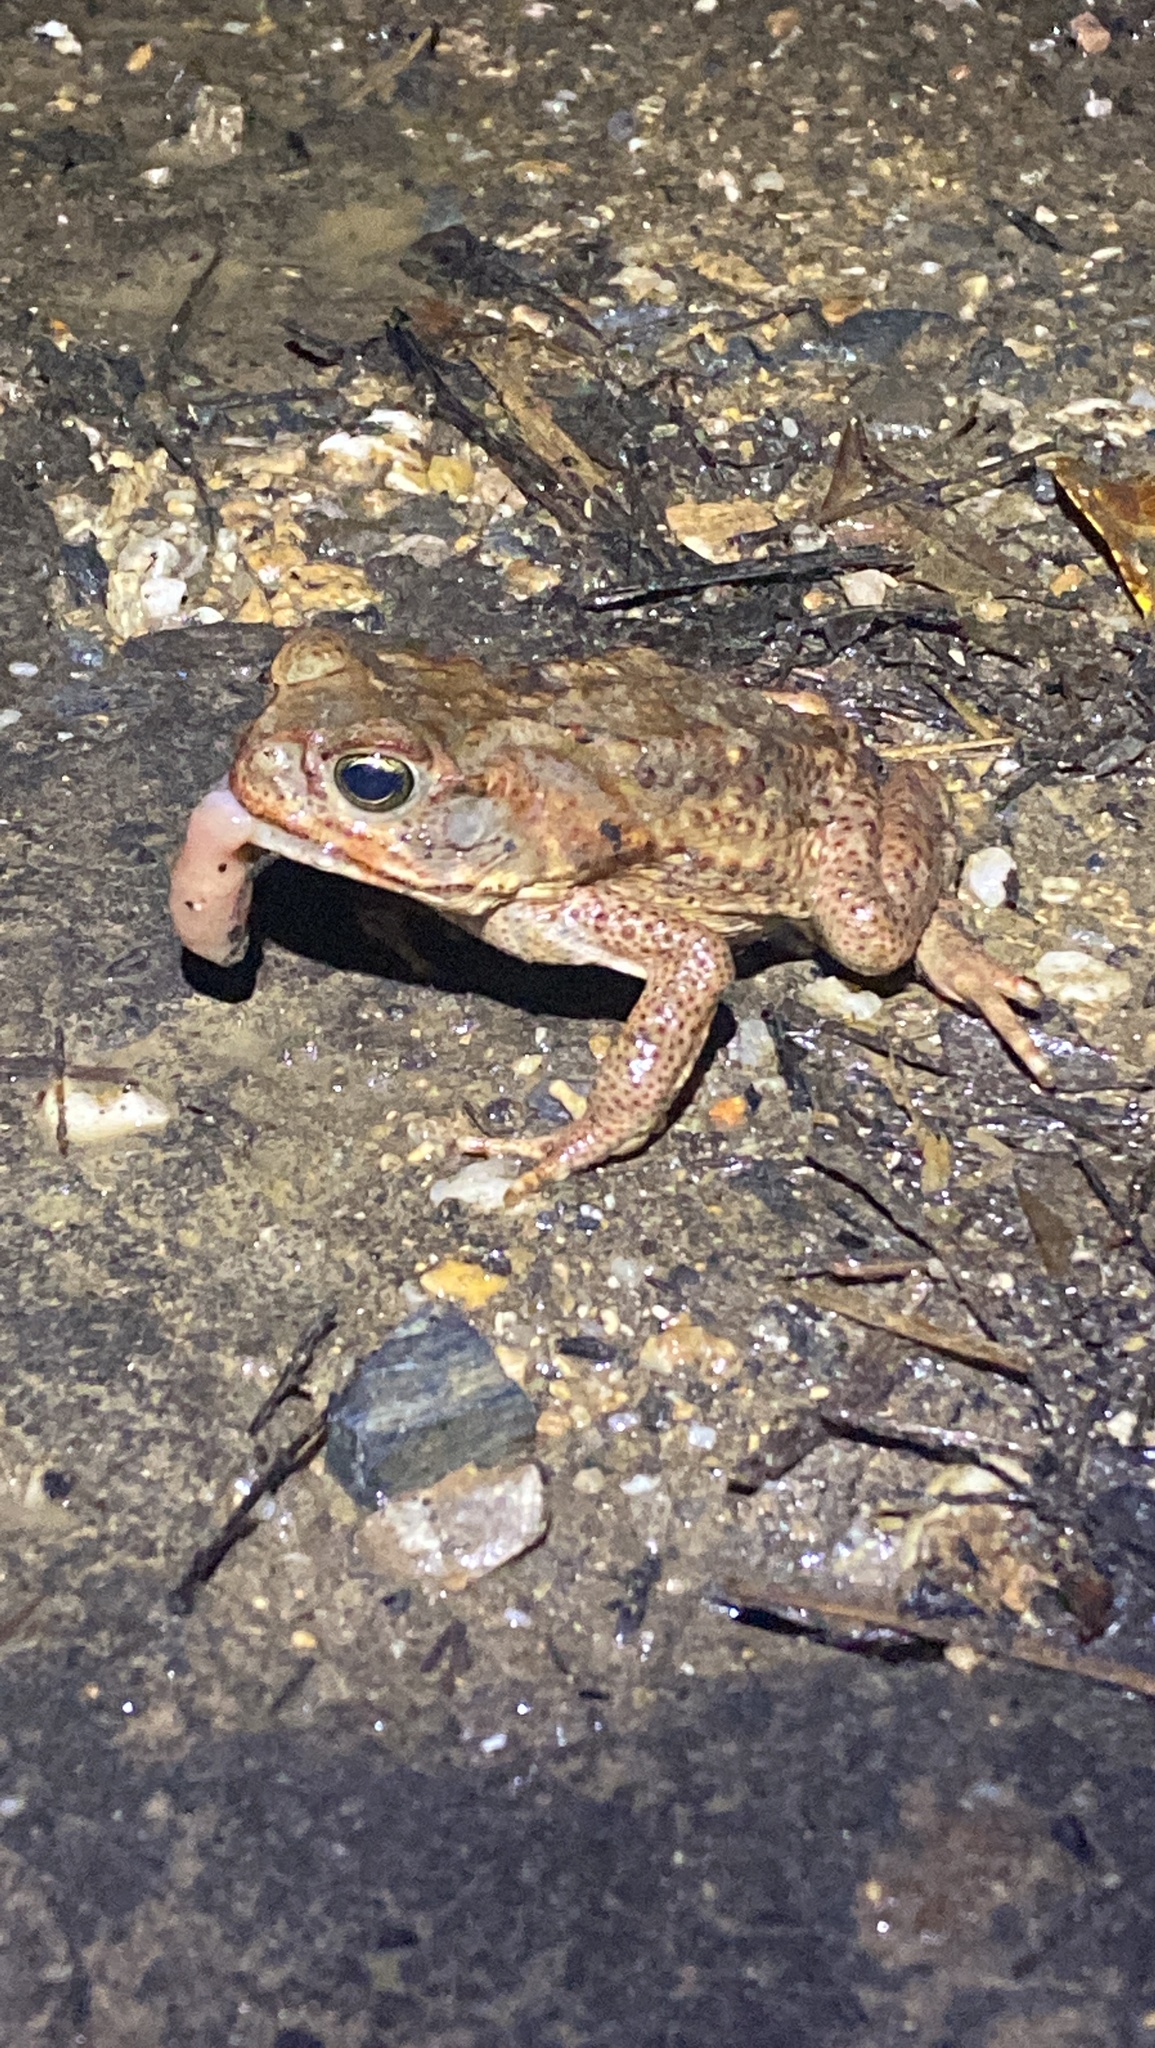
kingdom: Animalia
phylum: Chordata
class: Amphibia
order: Anura
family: Bufonidae
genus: Rhinella
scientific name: Rhinella marina
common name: Cane toad
